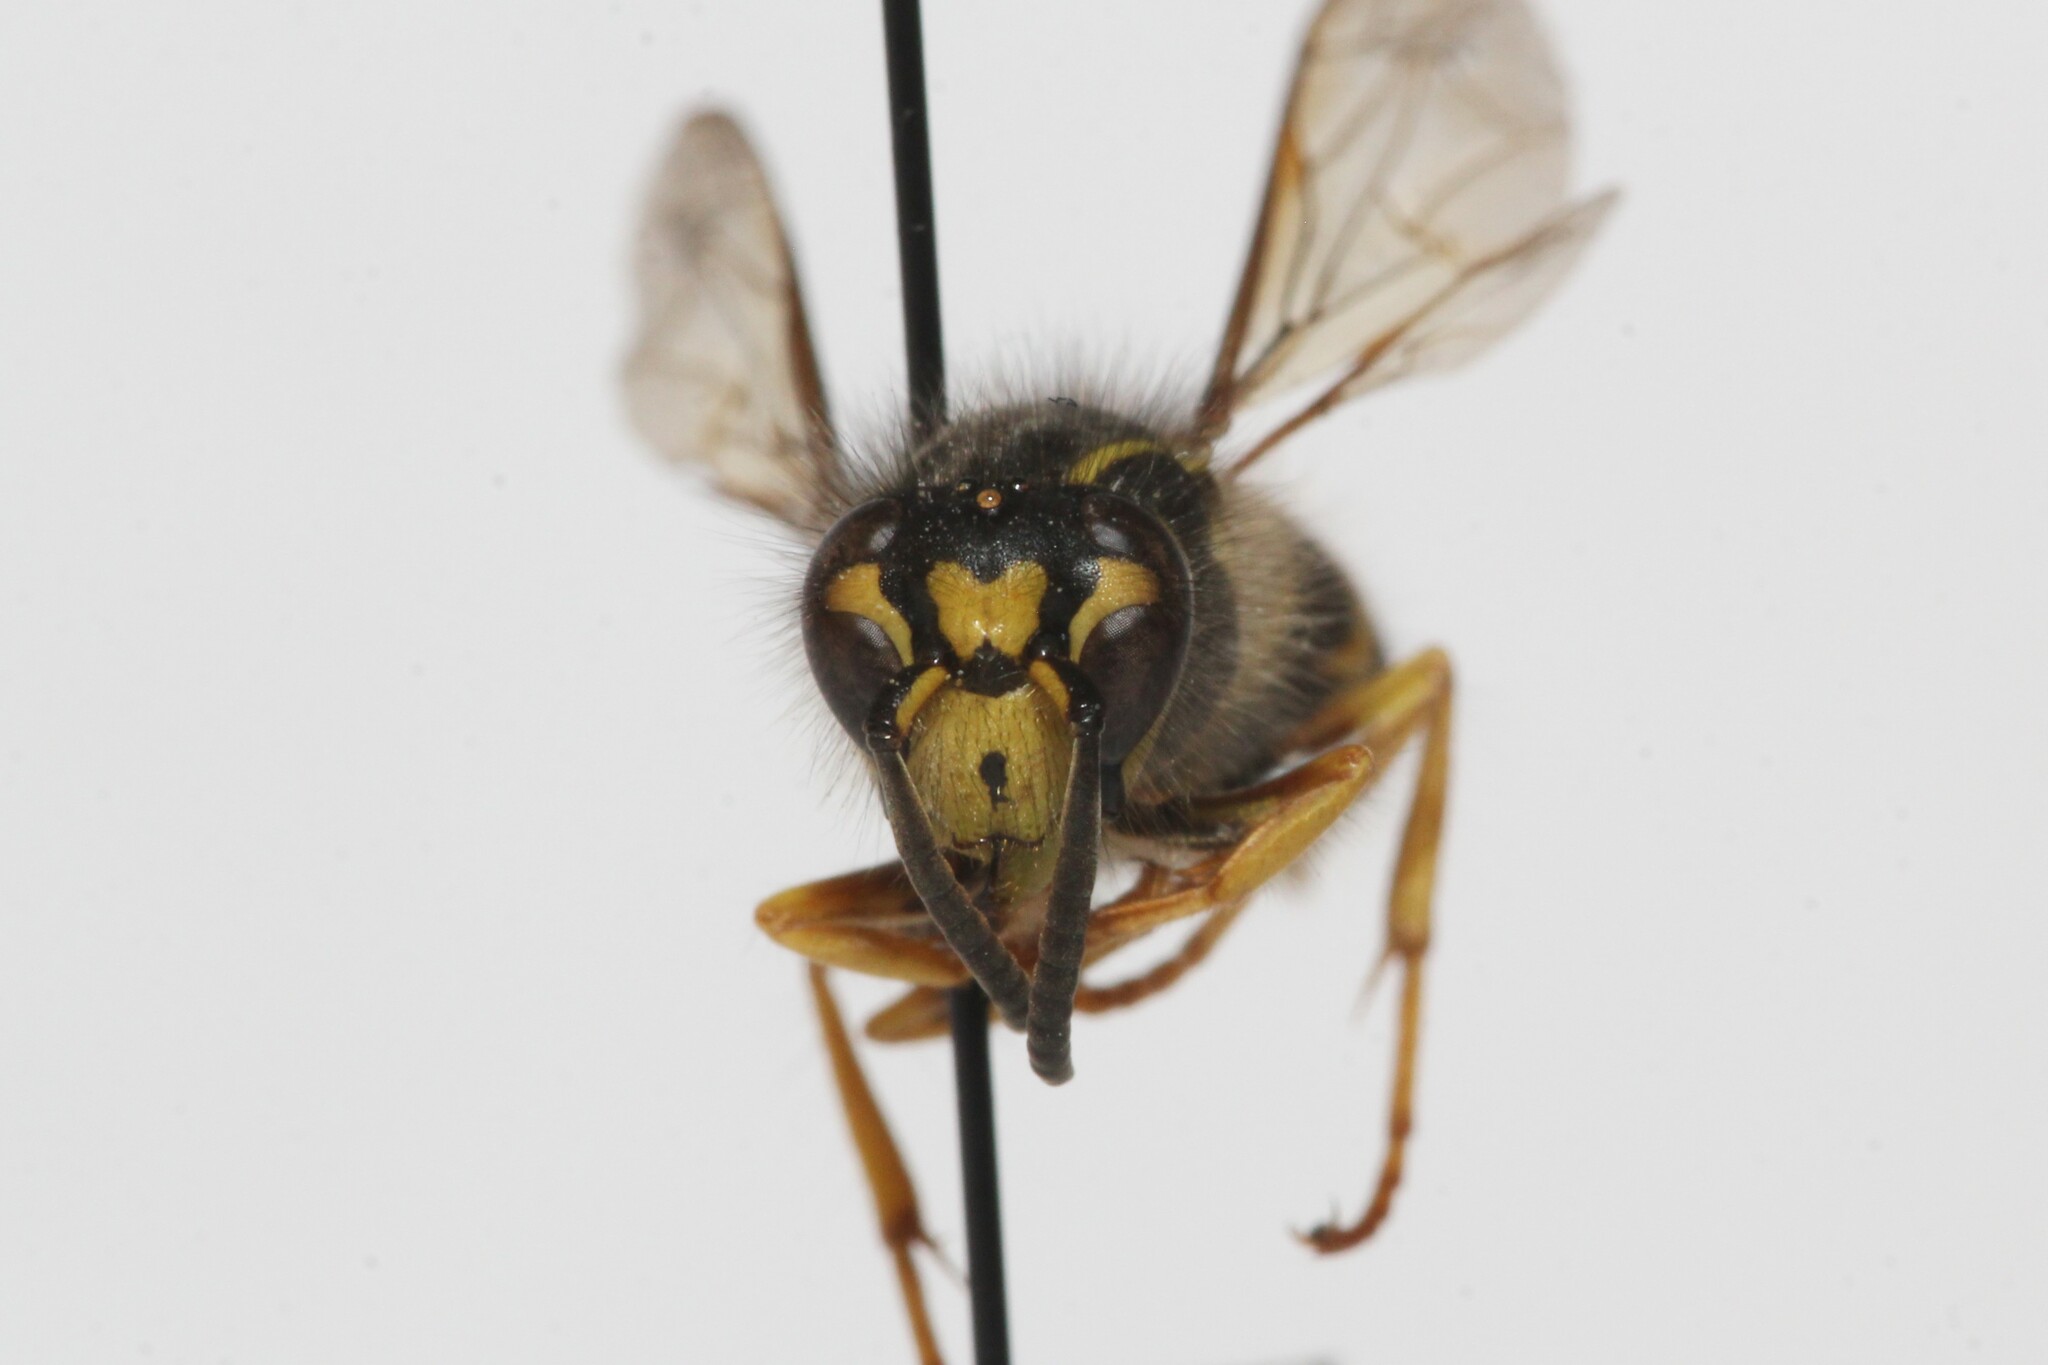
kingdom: Animalia
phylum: Arthropoda
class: Insecta
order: Hymenoptera
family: Vespidae
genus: Dolichovespula
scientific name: Dolichovespula arenaria
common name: Aerial yellowjacket
